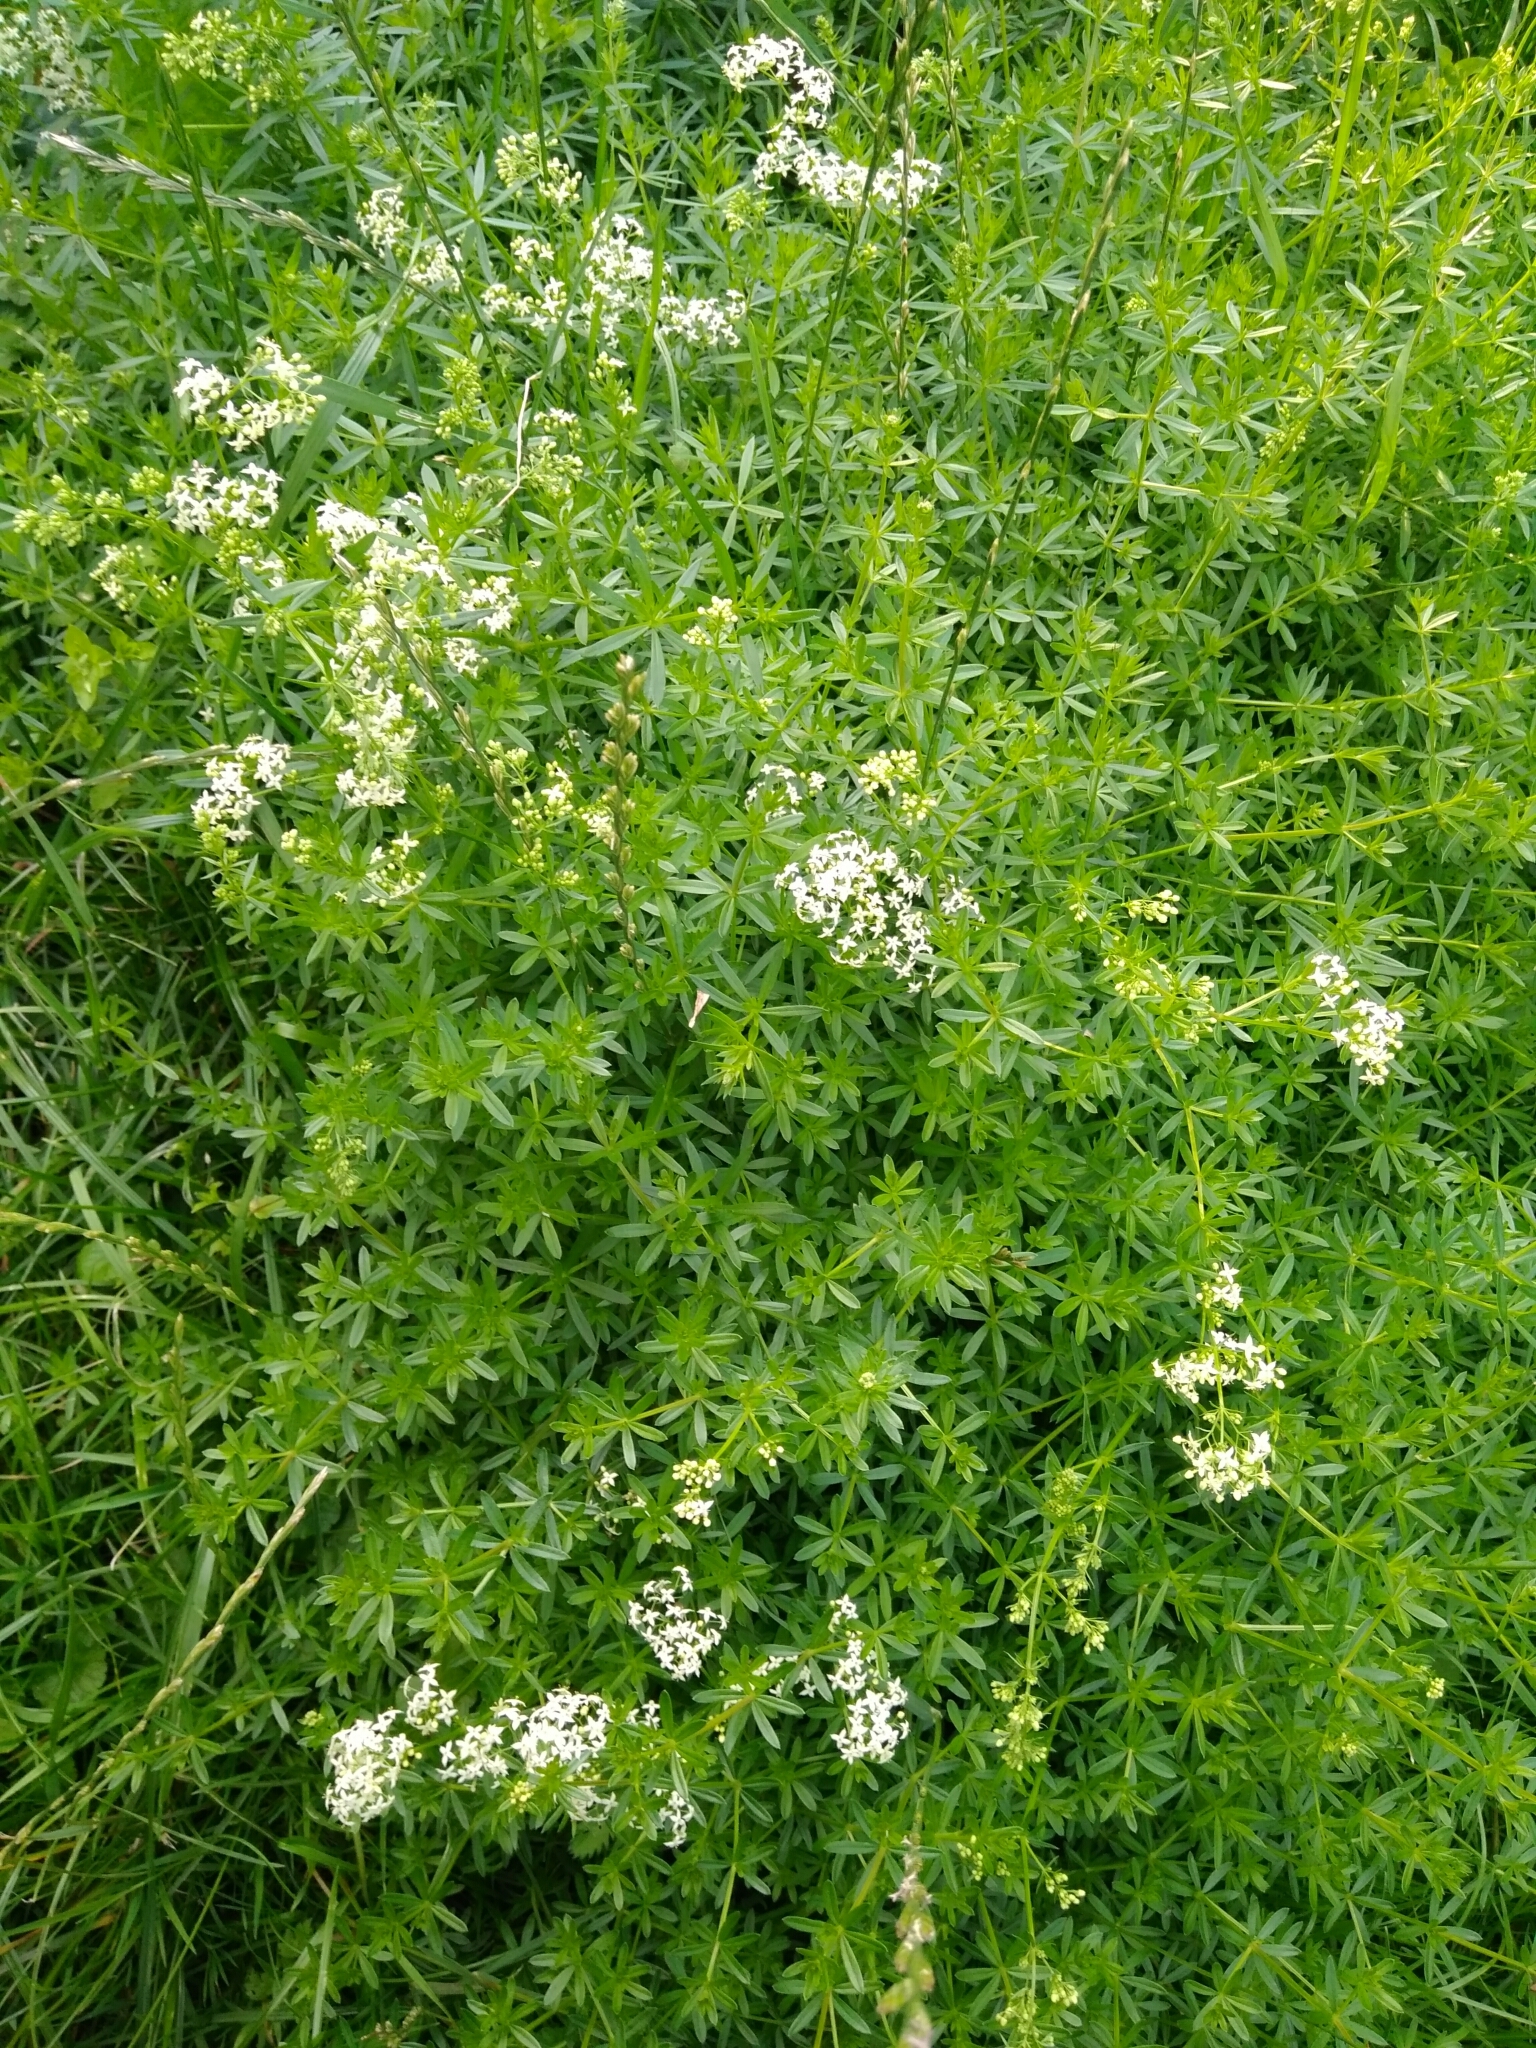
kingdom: Plantae
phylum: Tracheophyta
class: Magnoliopsida
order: Gentianales
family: Rubiaceae
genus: Galium
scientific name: Galium mollugo
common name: Hedge bedstraw
